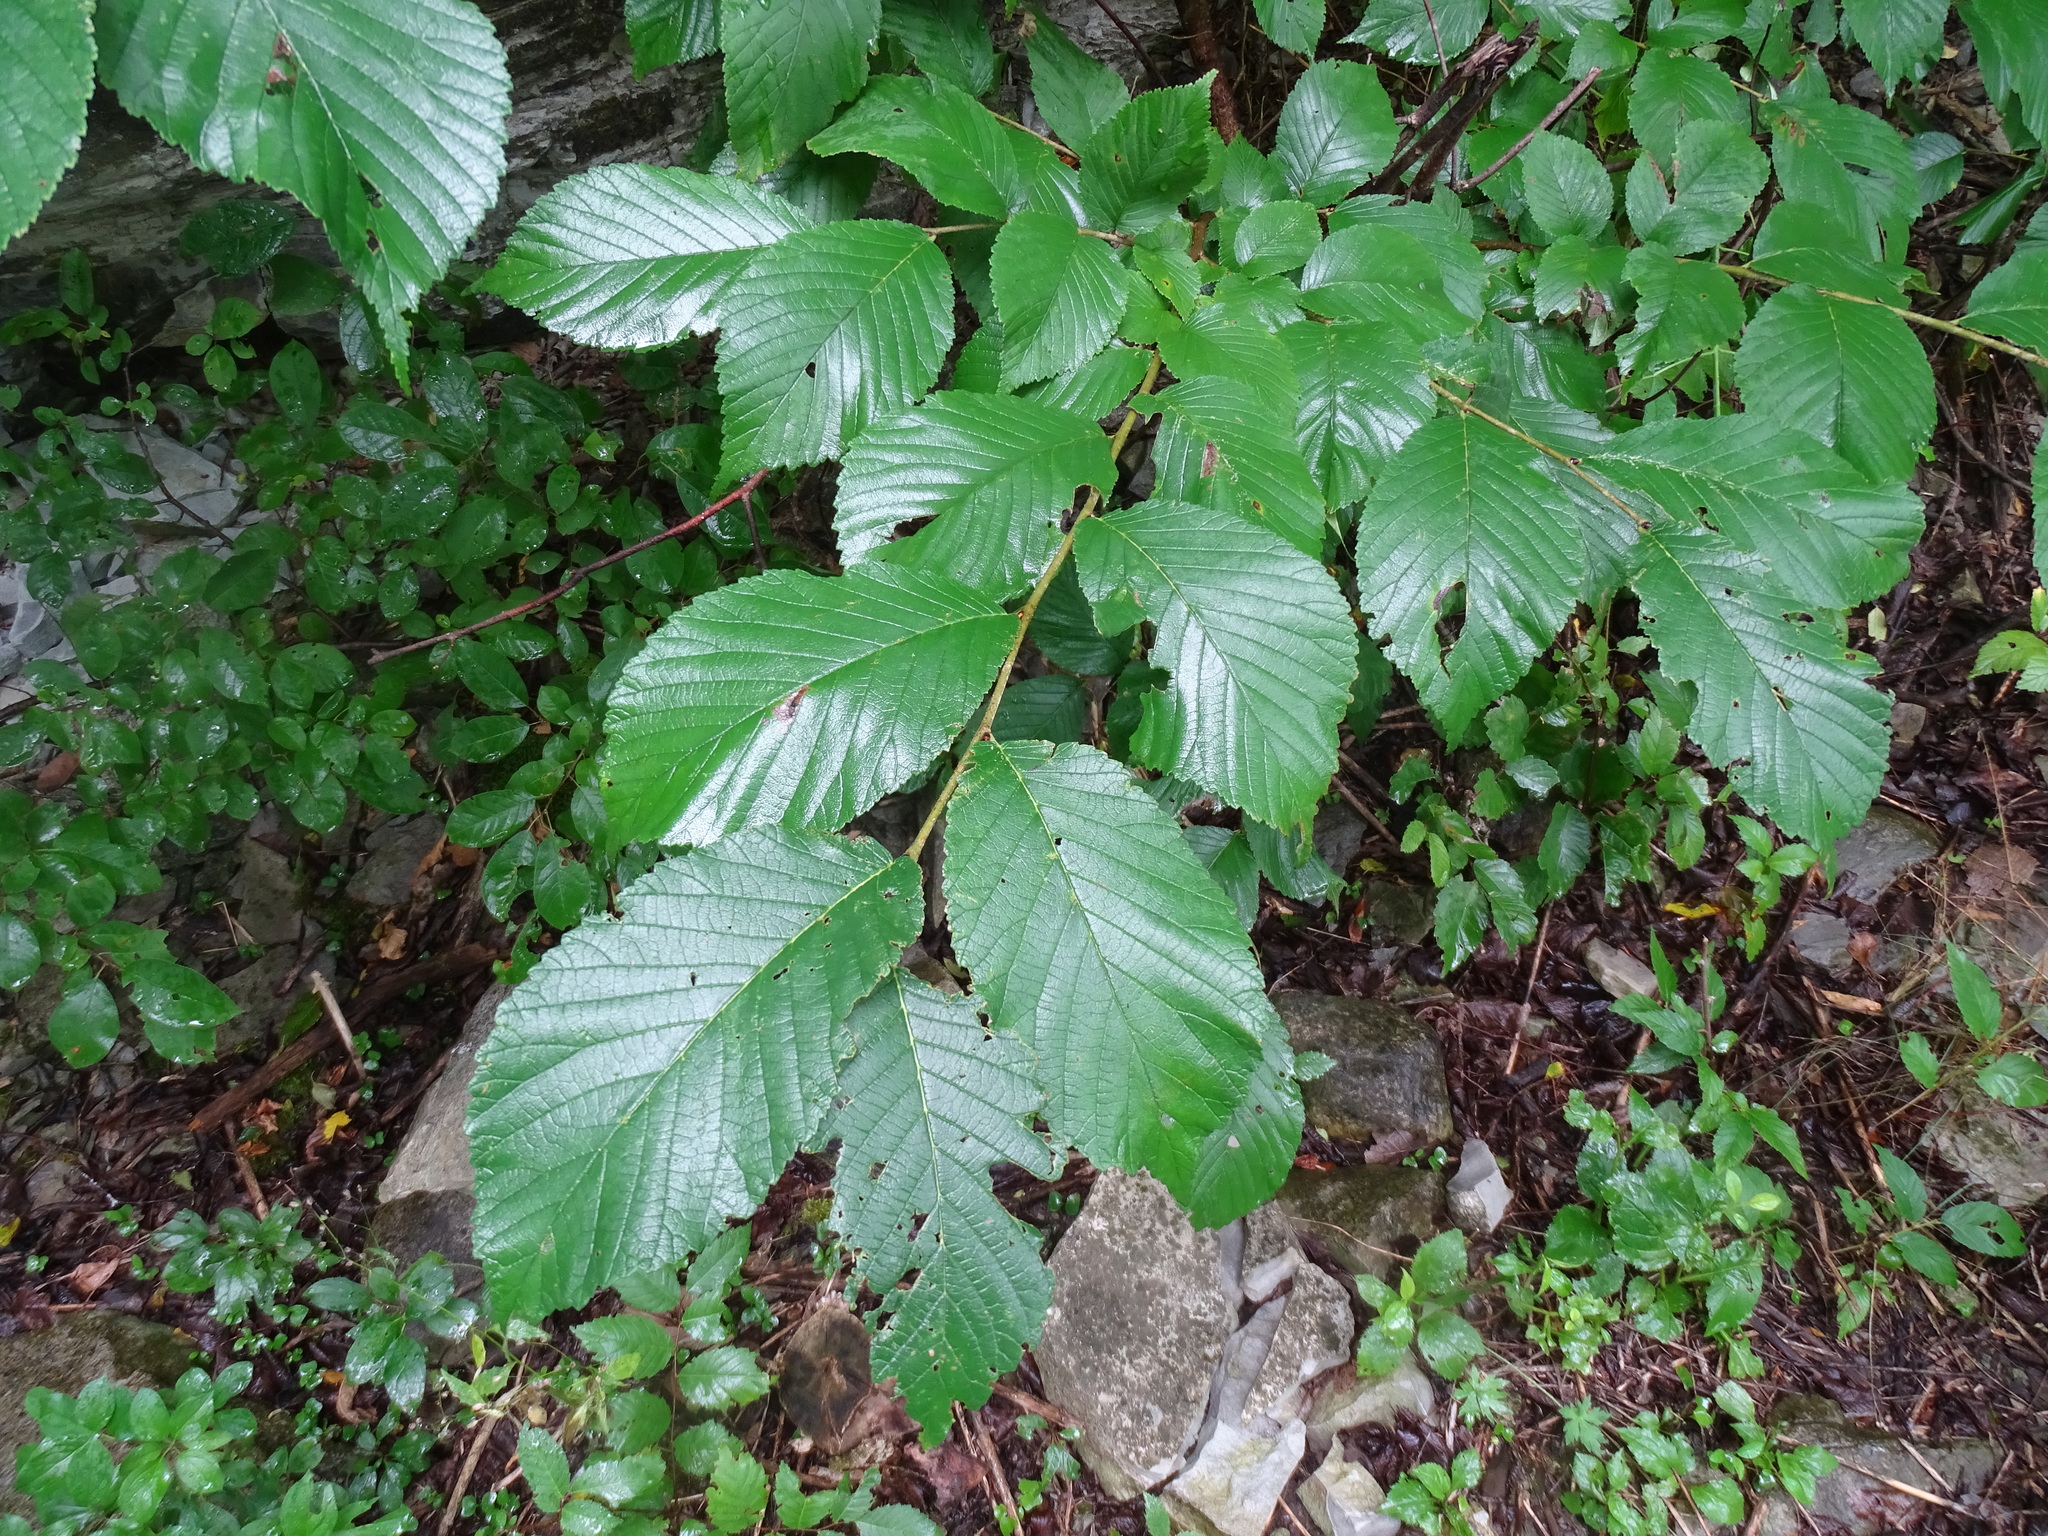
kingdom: Plantae
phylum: Tracheophyta
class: Magnoliopsida
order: Rosales
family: Ulmaceae
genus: Ulmus
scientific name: Ulmus rubra
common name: Slippery elm
